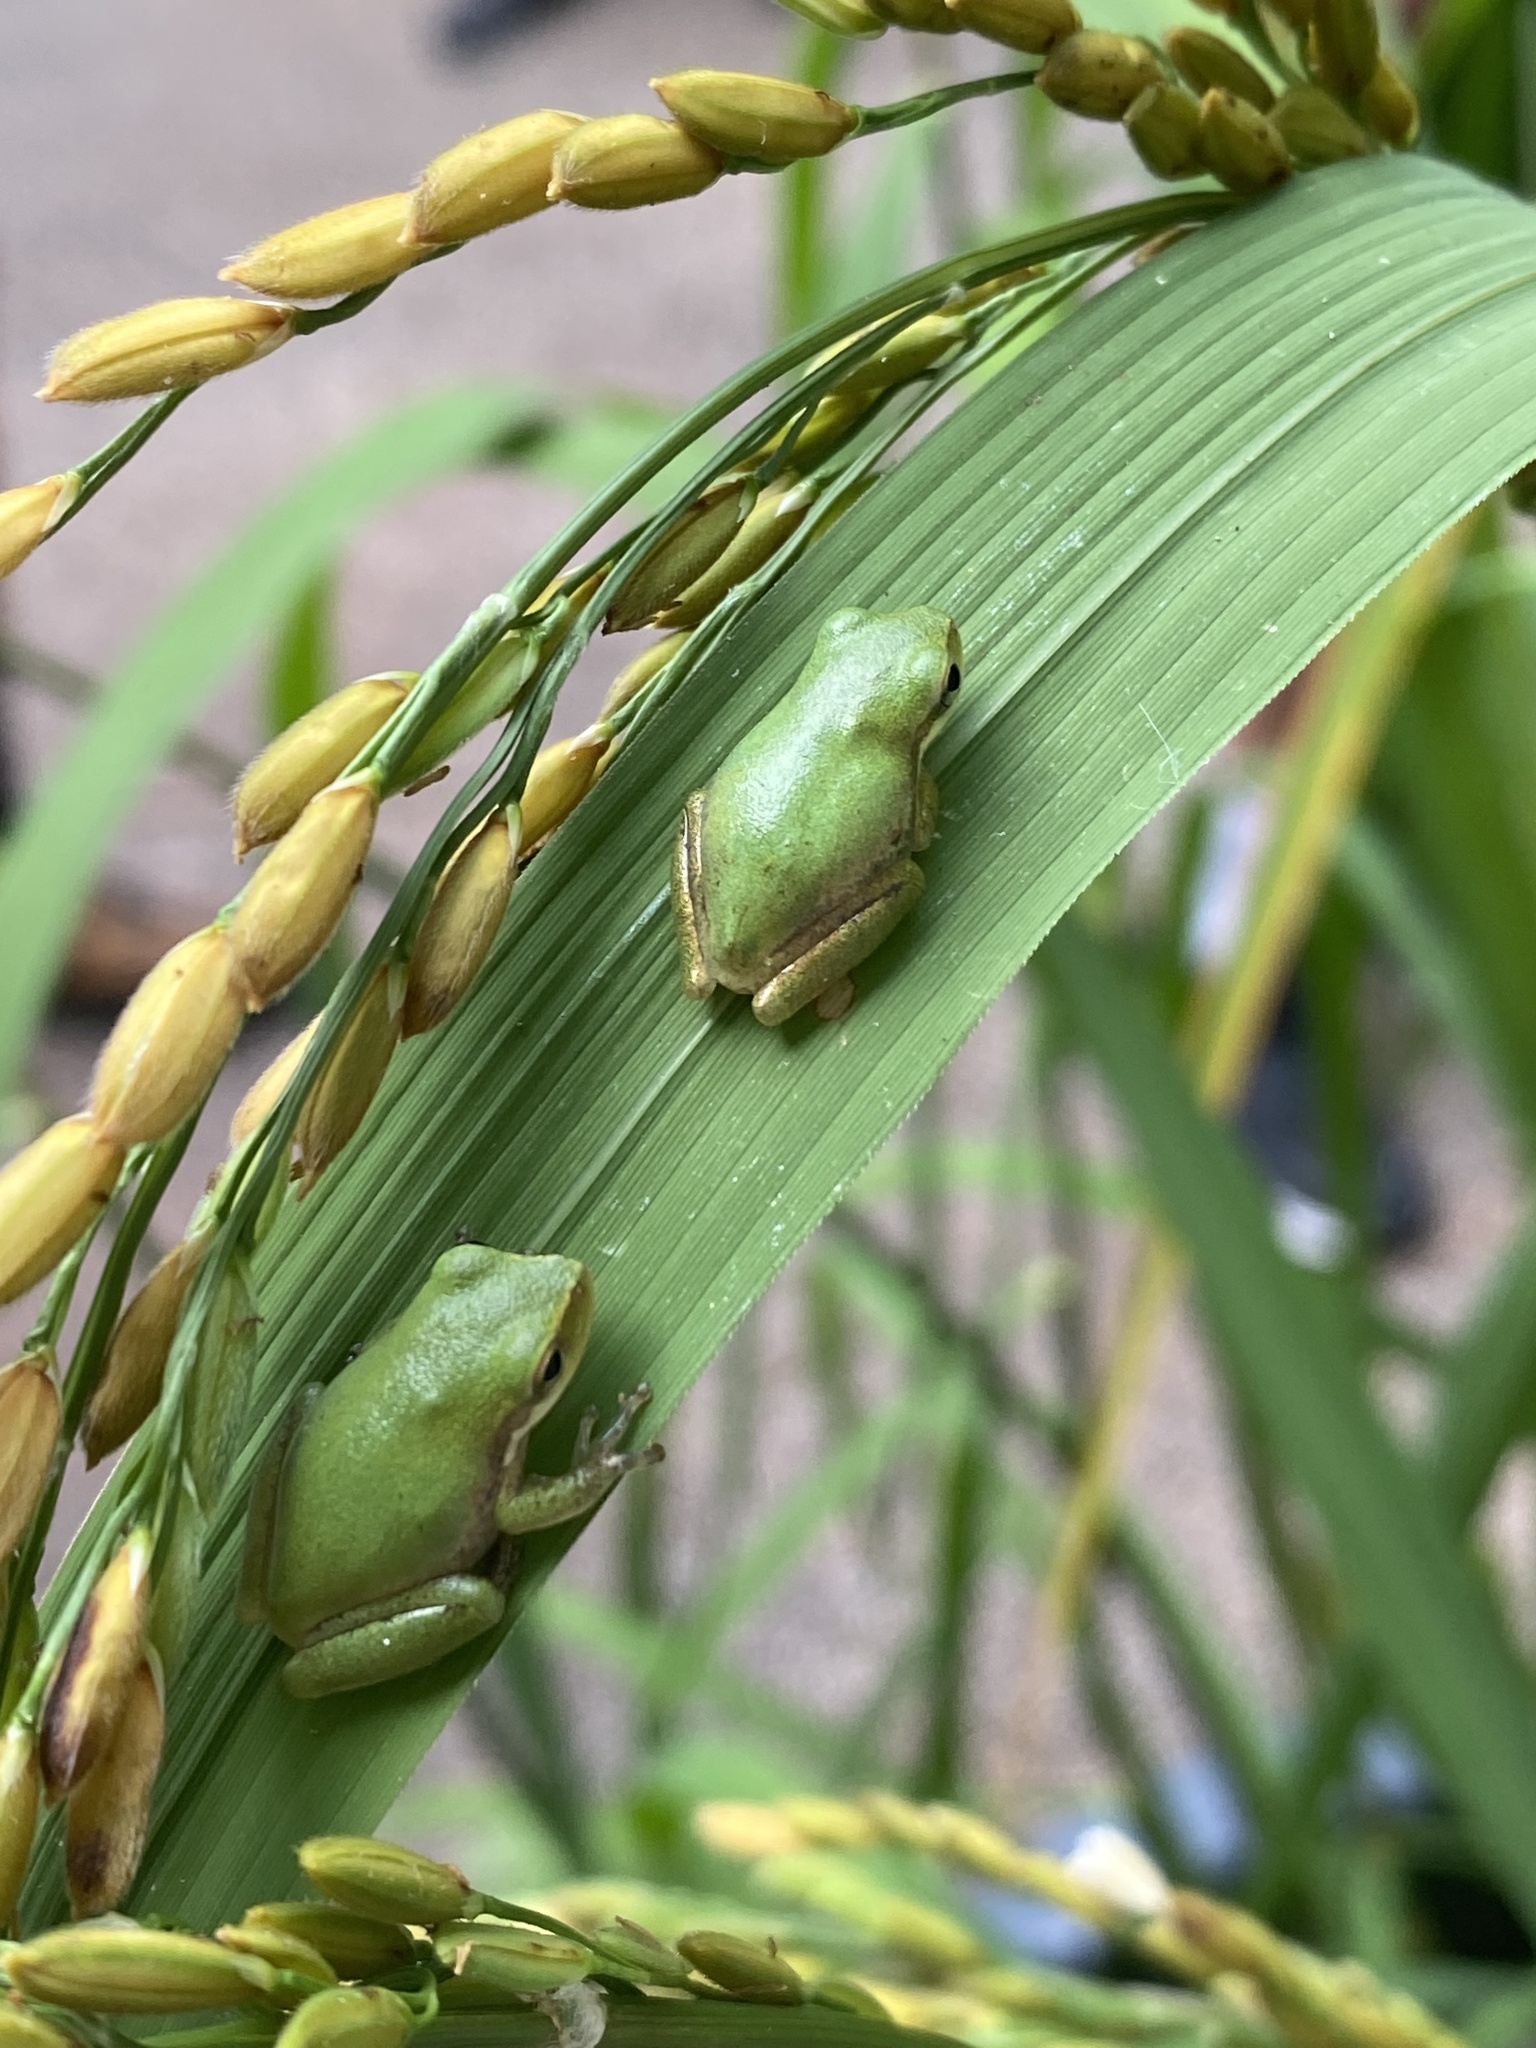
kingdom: Animalia
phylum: Chordata
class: Amphibia
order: Anura
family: Hylidae
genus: Dryophytes
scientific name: Dryophytes squirellus
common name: Squirrel treefrog
